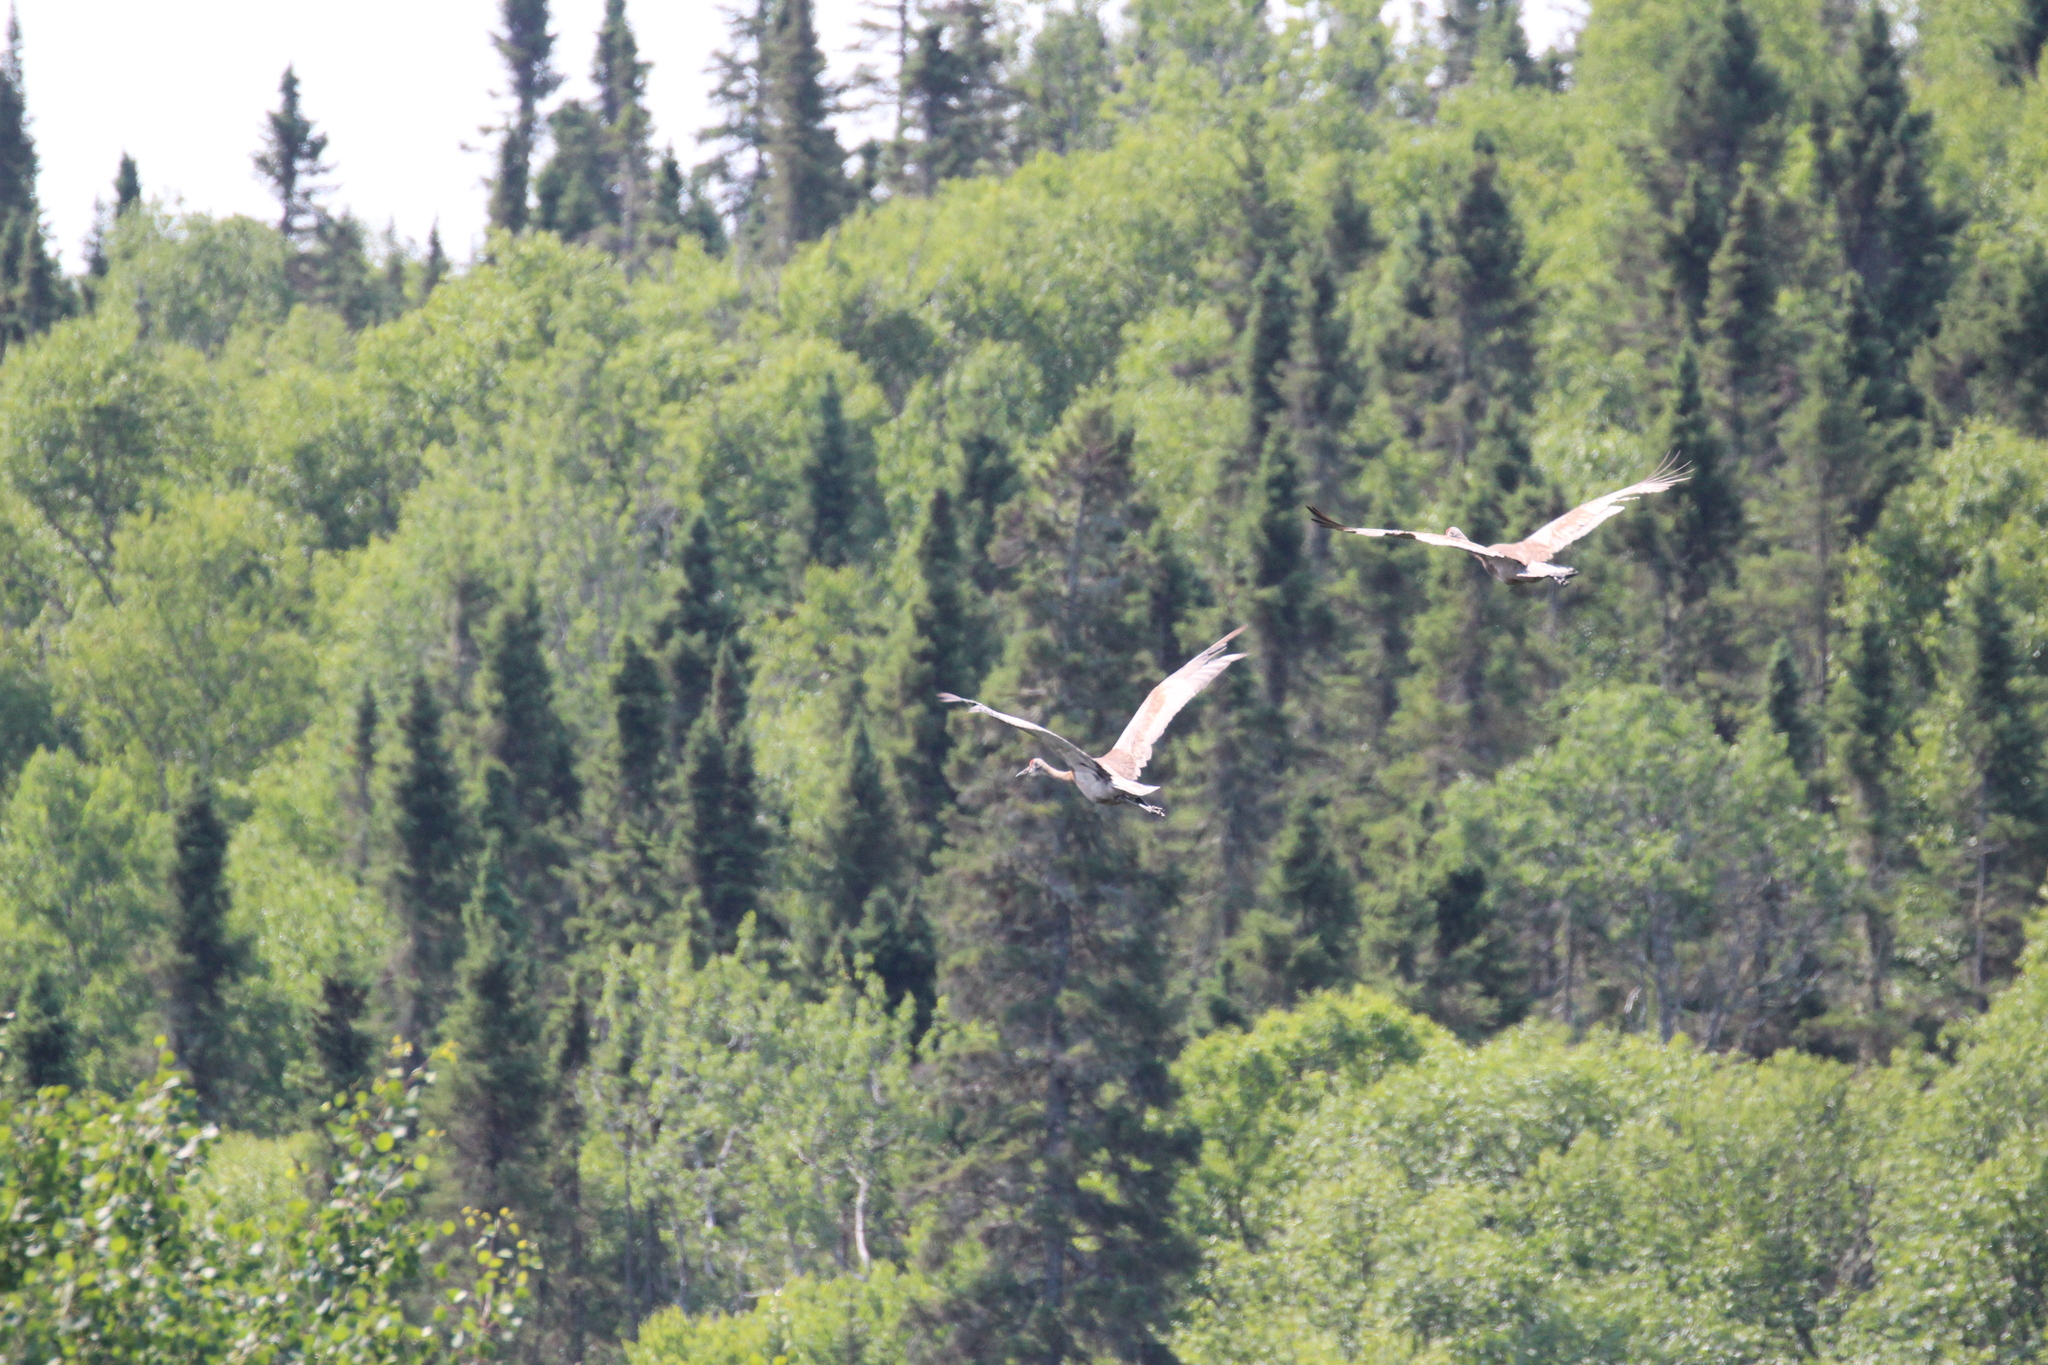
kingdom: Animalia
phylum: Chordata
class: Aves
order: Gruiformes
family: Gruidae
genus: Grus
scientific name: Grus canadensis
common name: Sandhill crane
